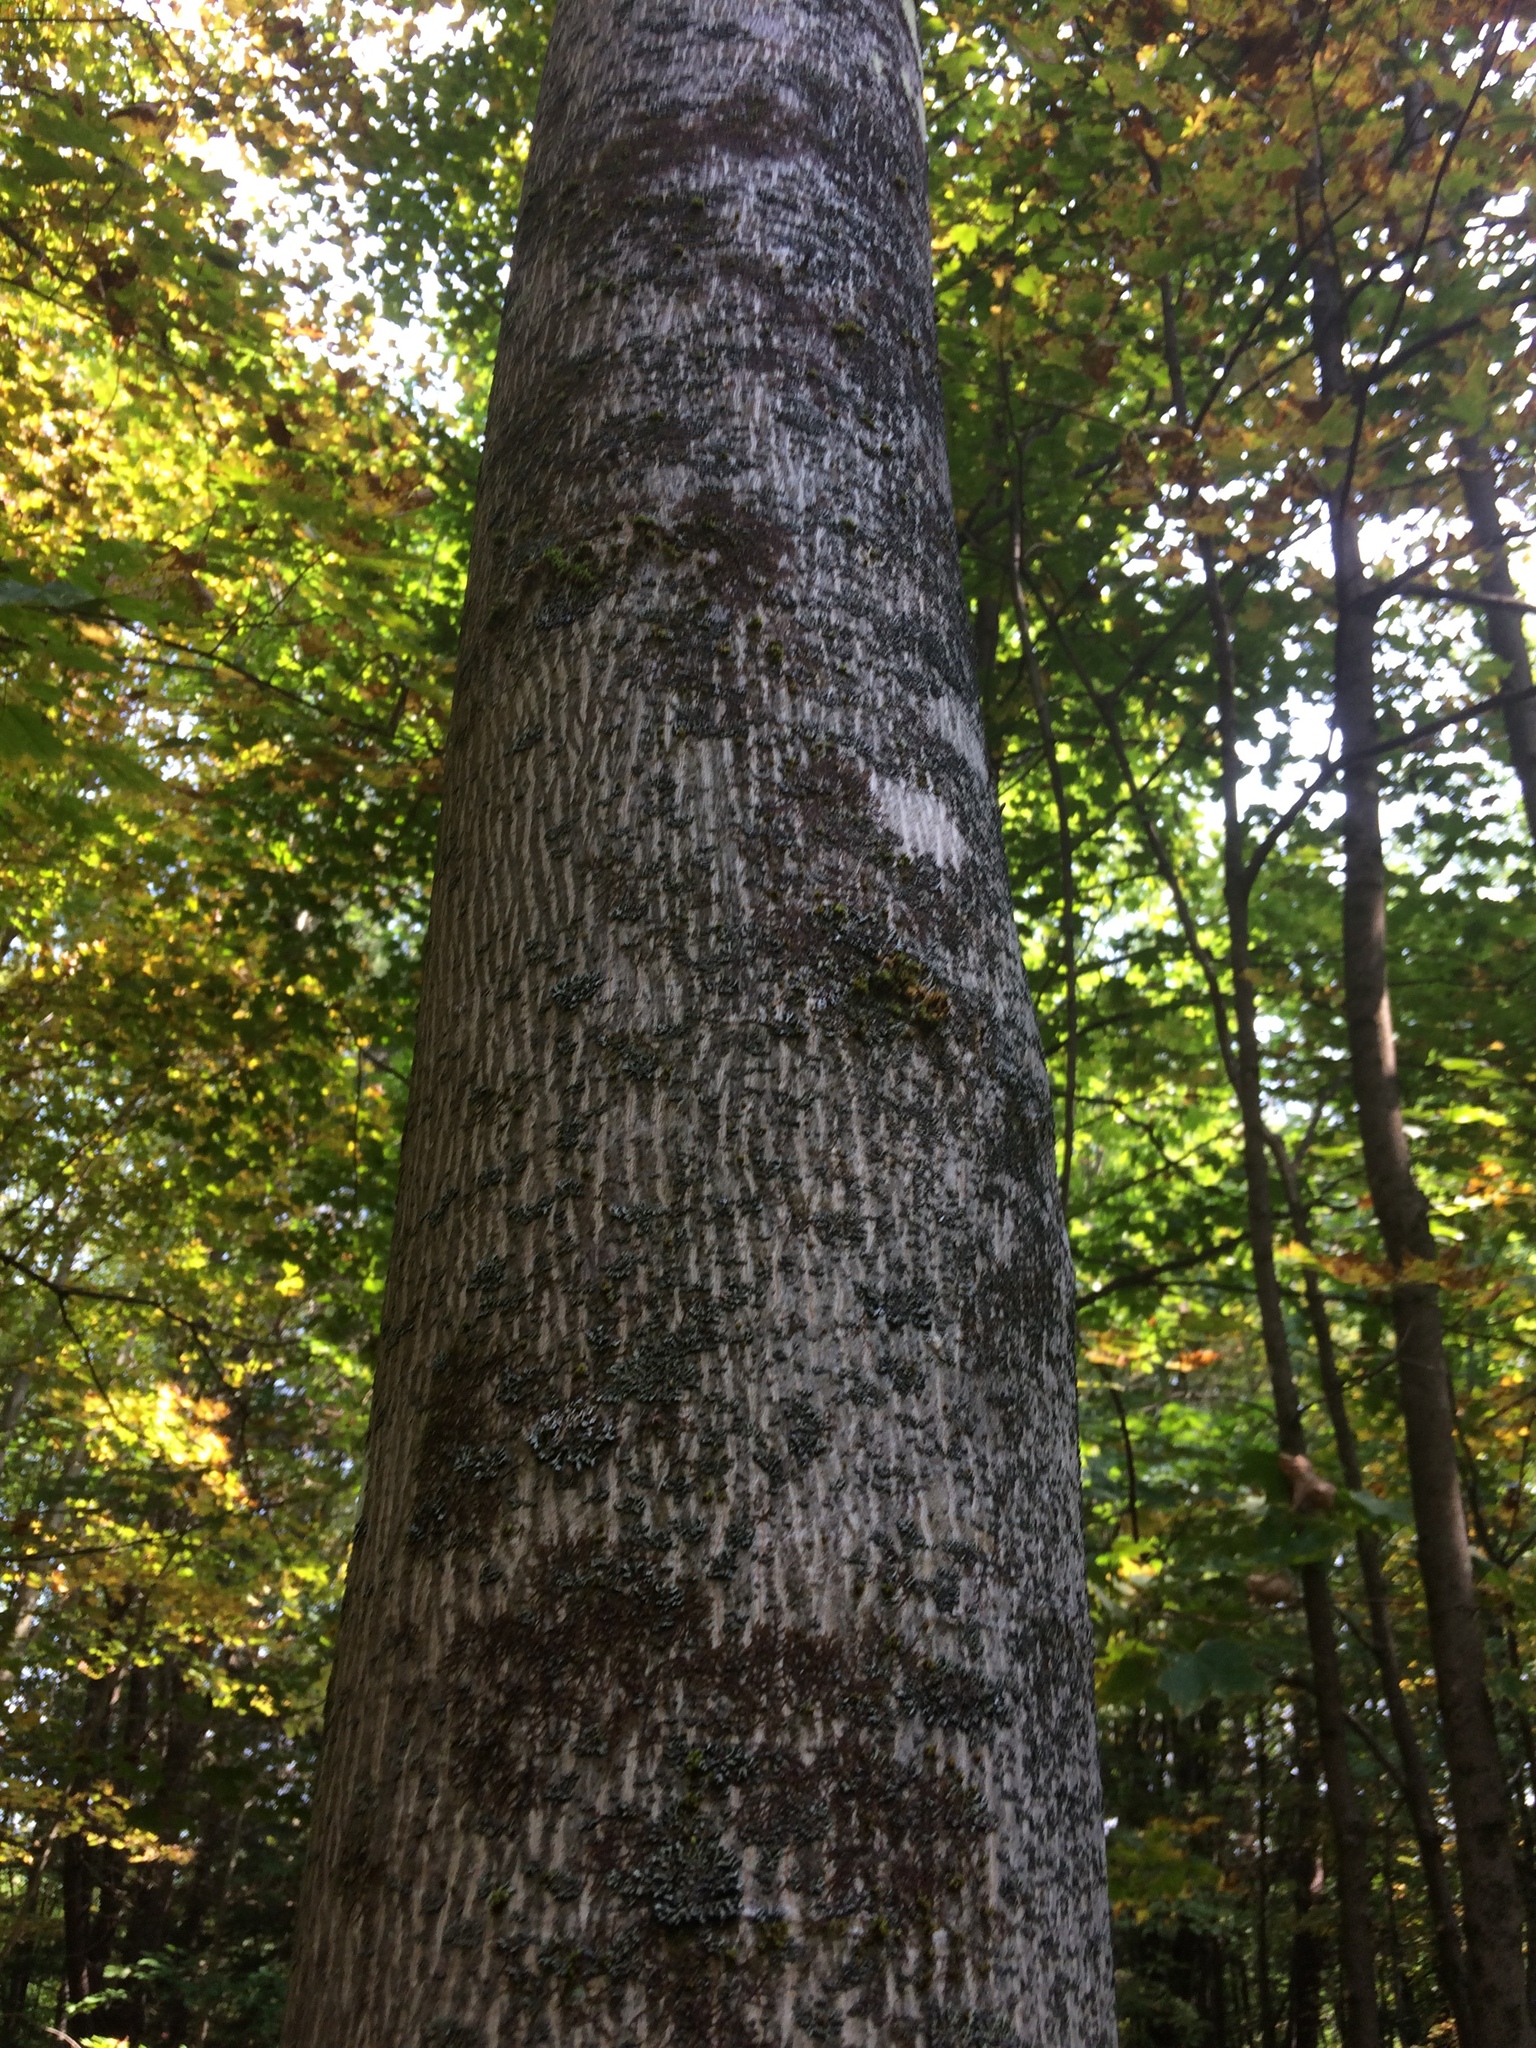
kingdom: Plantae
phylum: Tracheophyta
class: Magnoliopsida
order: Fagales
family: Juglandaceae
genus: Carya
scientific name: Carya cordiformis
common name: Bitternut hickory
